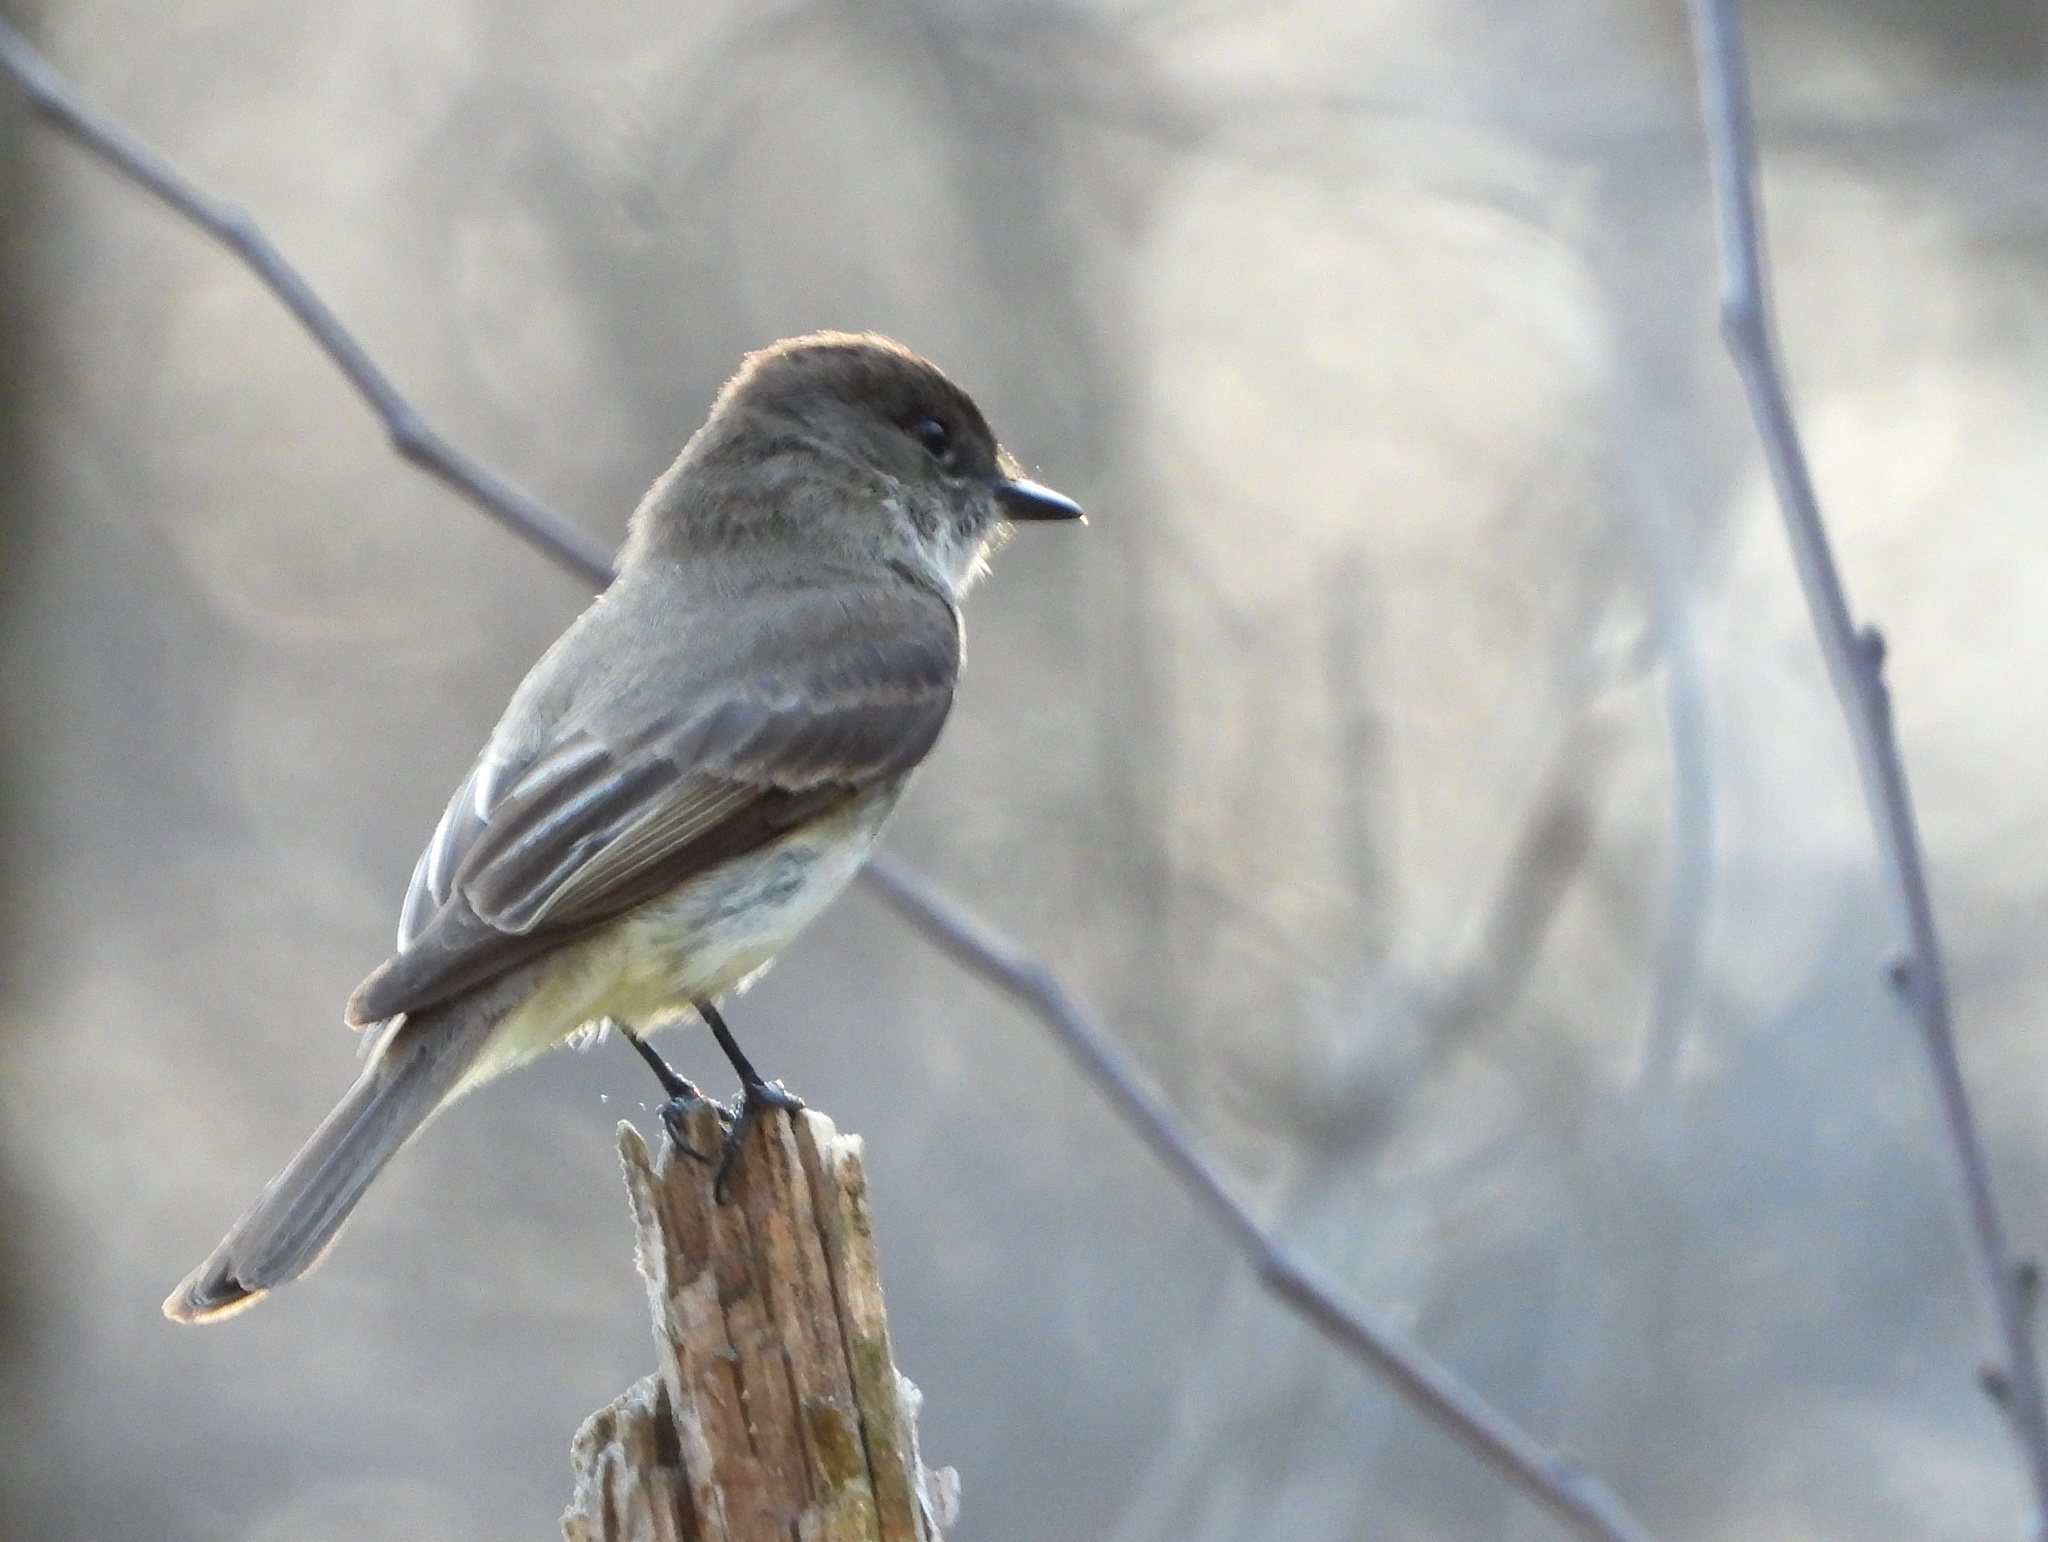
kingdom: Animalia
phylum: Chordata
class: Aves
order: Passeriformes
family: Tyrannidae
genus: Sayornis
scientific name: Sayornis phoebe
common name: Eastern phoebe
